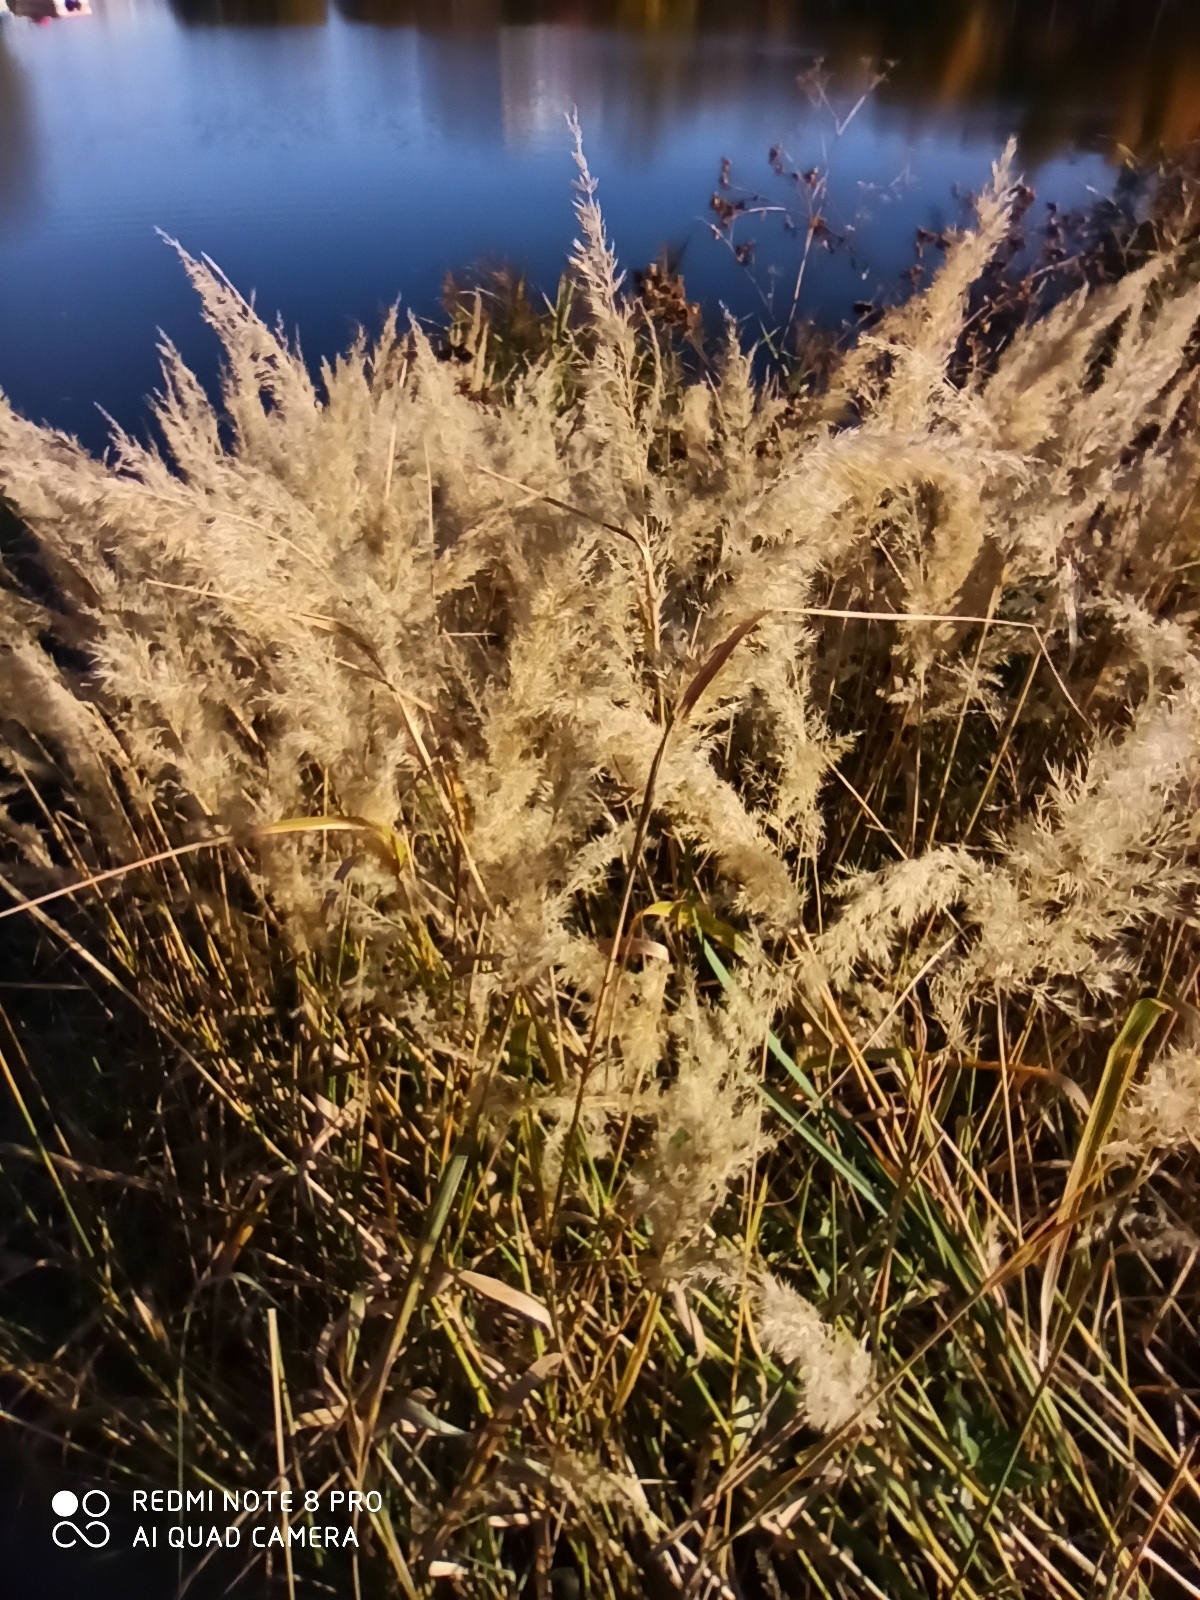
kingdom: Plantae
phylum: Tracheophyta
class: Liliopsida
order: Poales
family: Poaceae
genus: Calamagrostis
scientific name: Calamagrostis epigejos
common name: Wood small-reed
